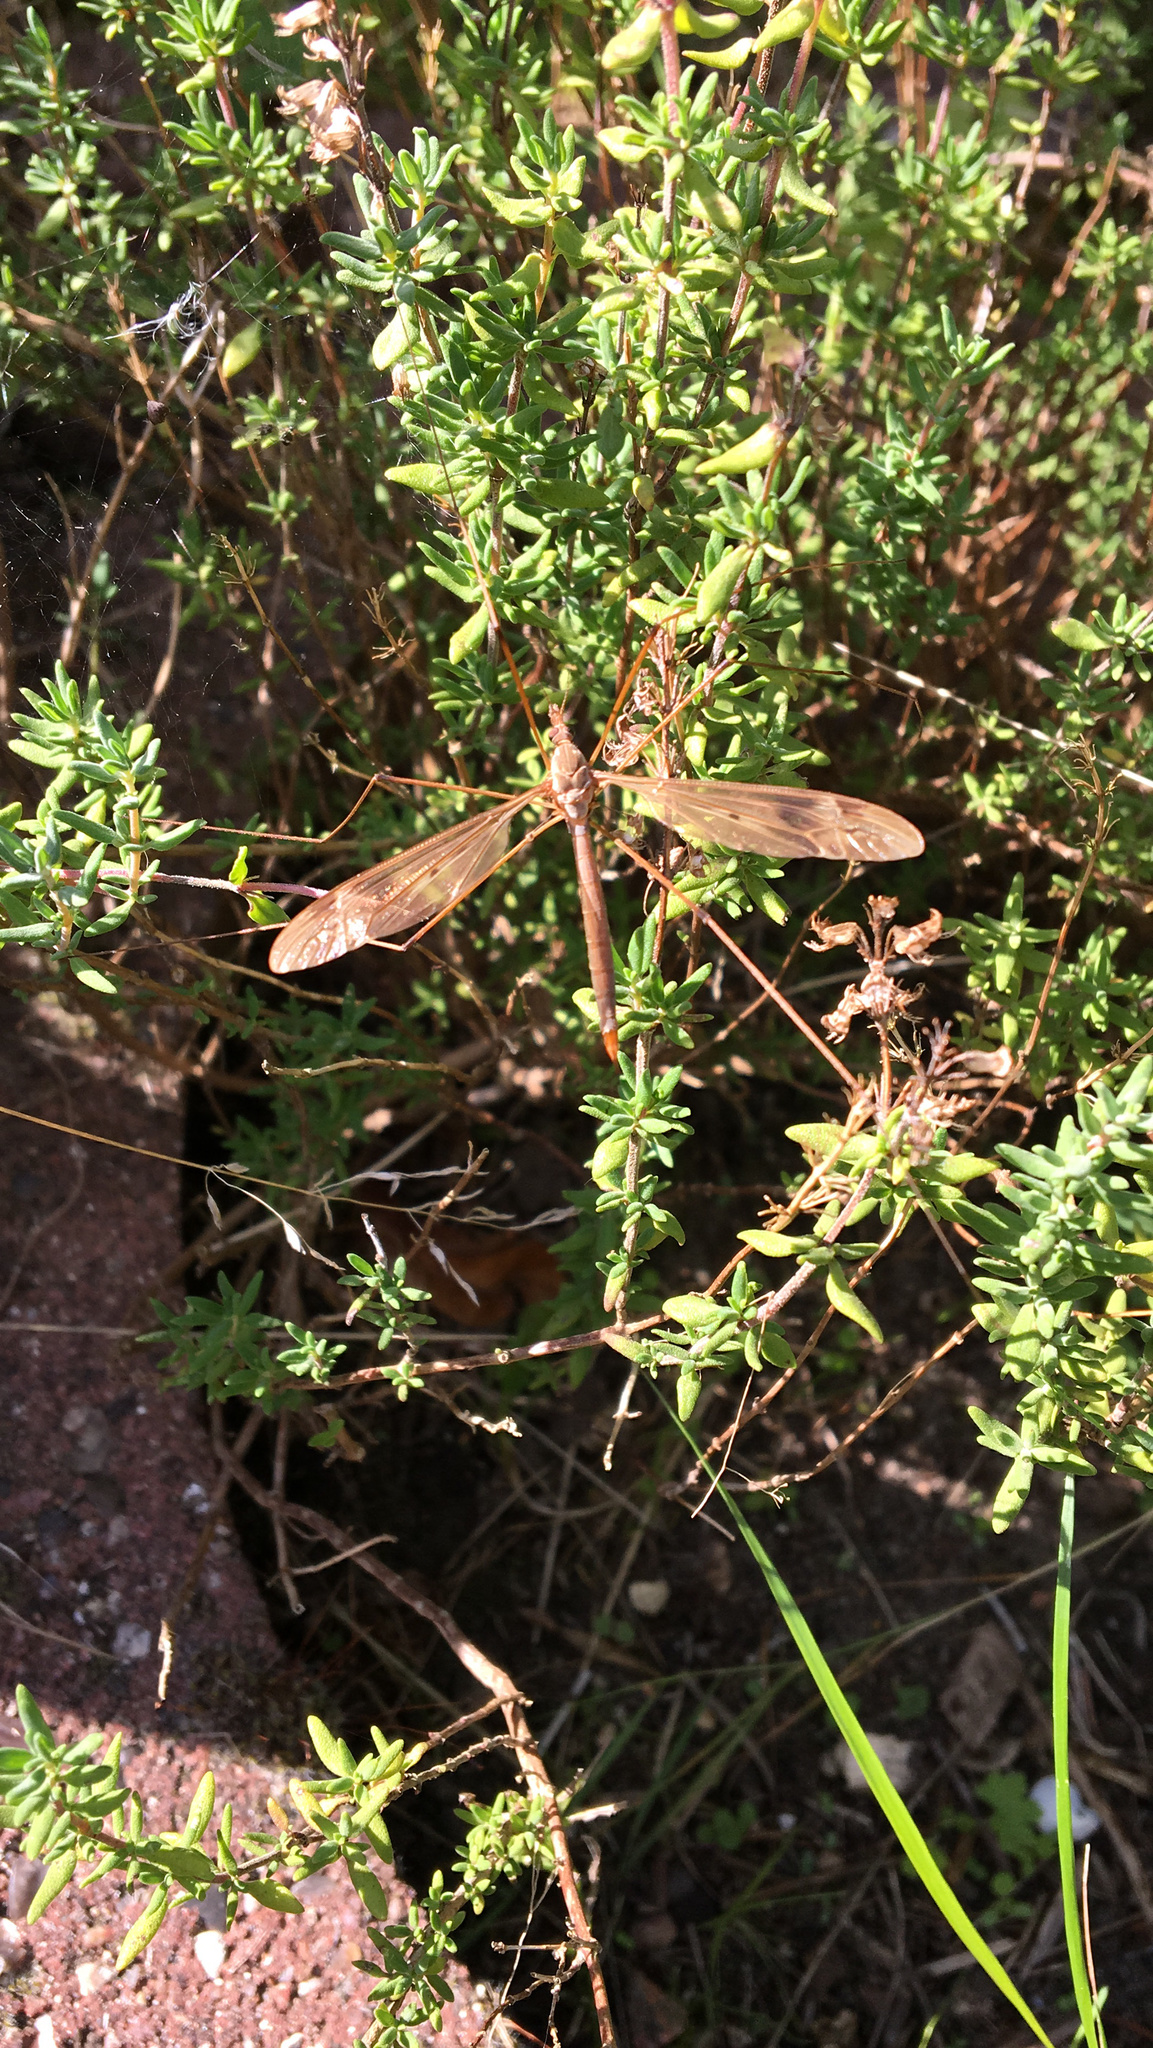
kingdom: Animalia
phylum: Arthropoda
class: Insecta
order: Diptera
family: Tipulidae
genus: Tipula
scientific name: Tipula fulvipennis
